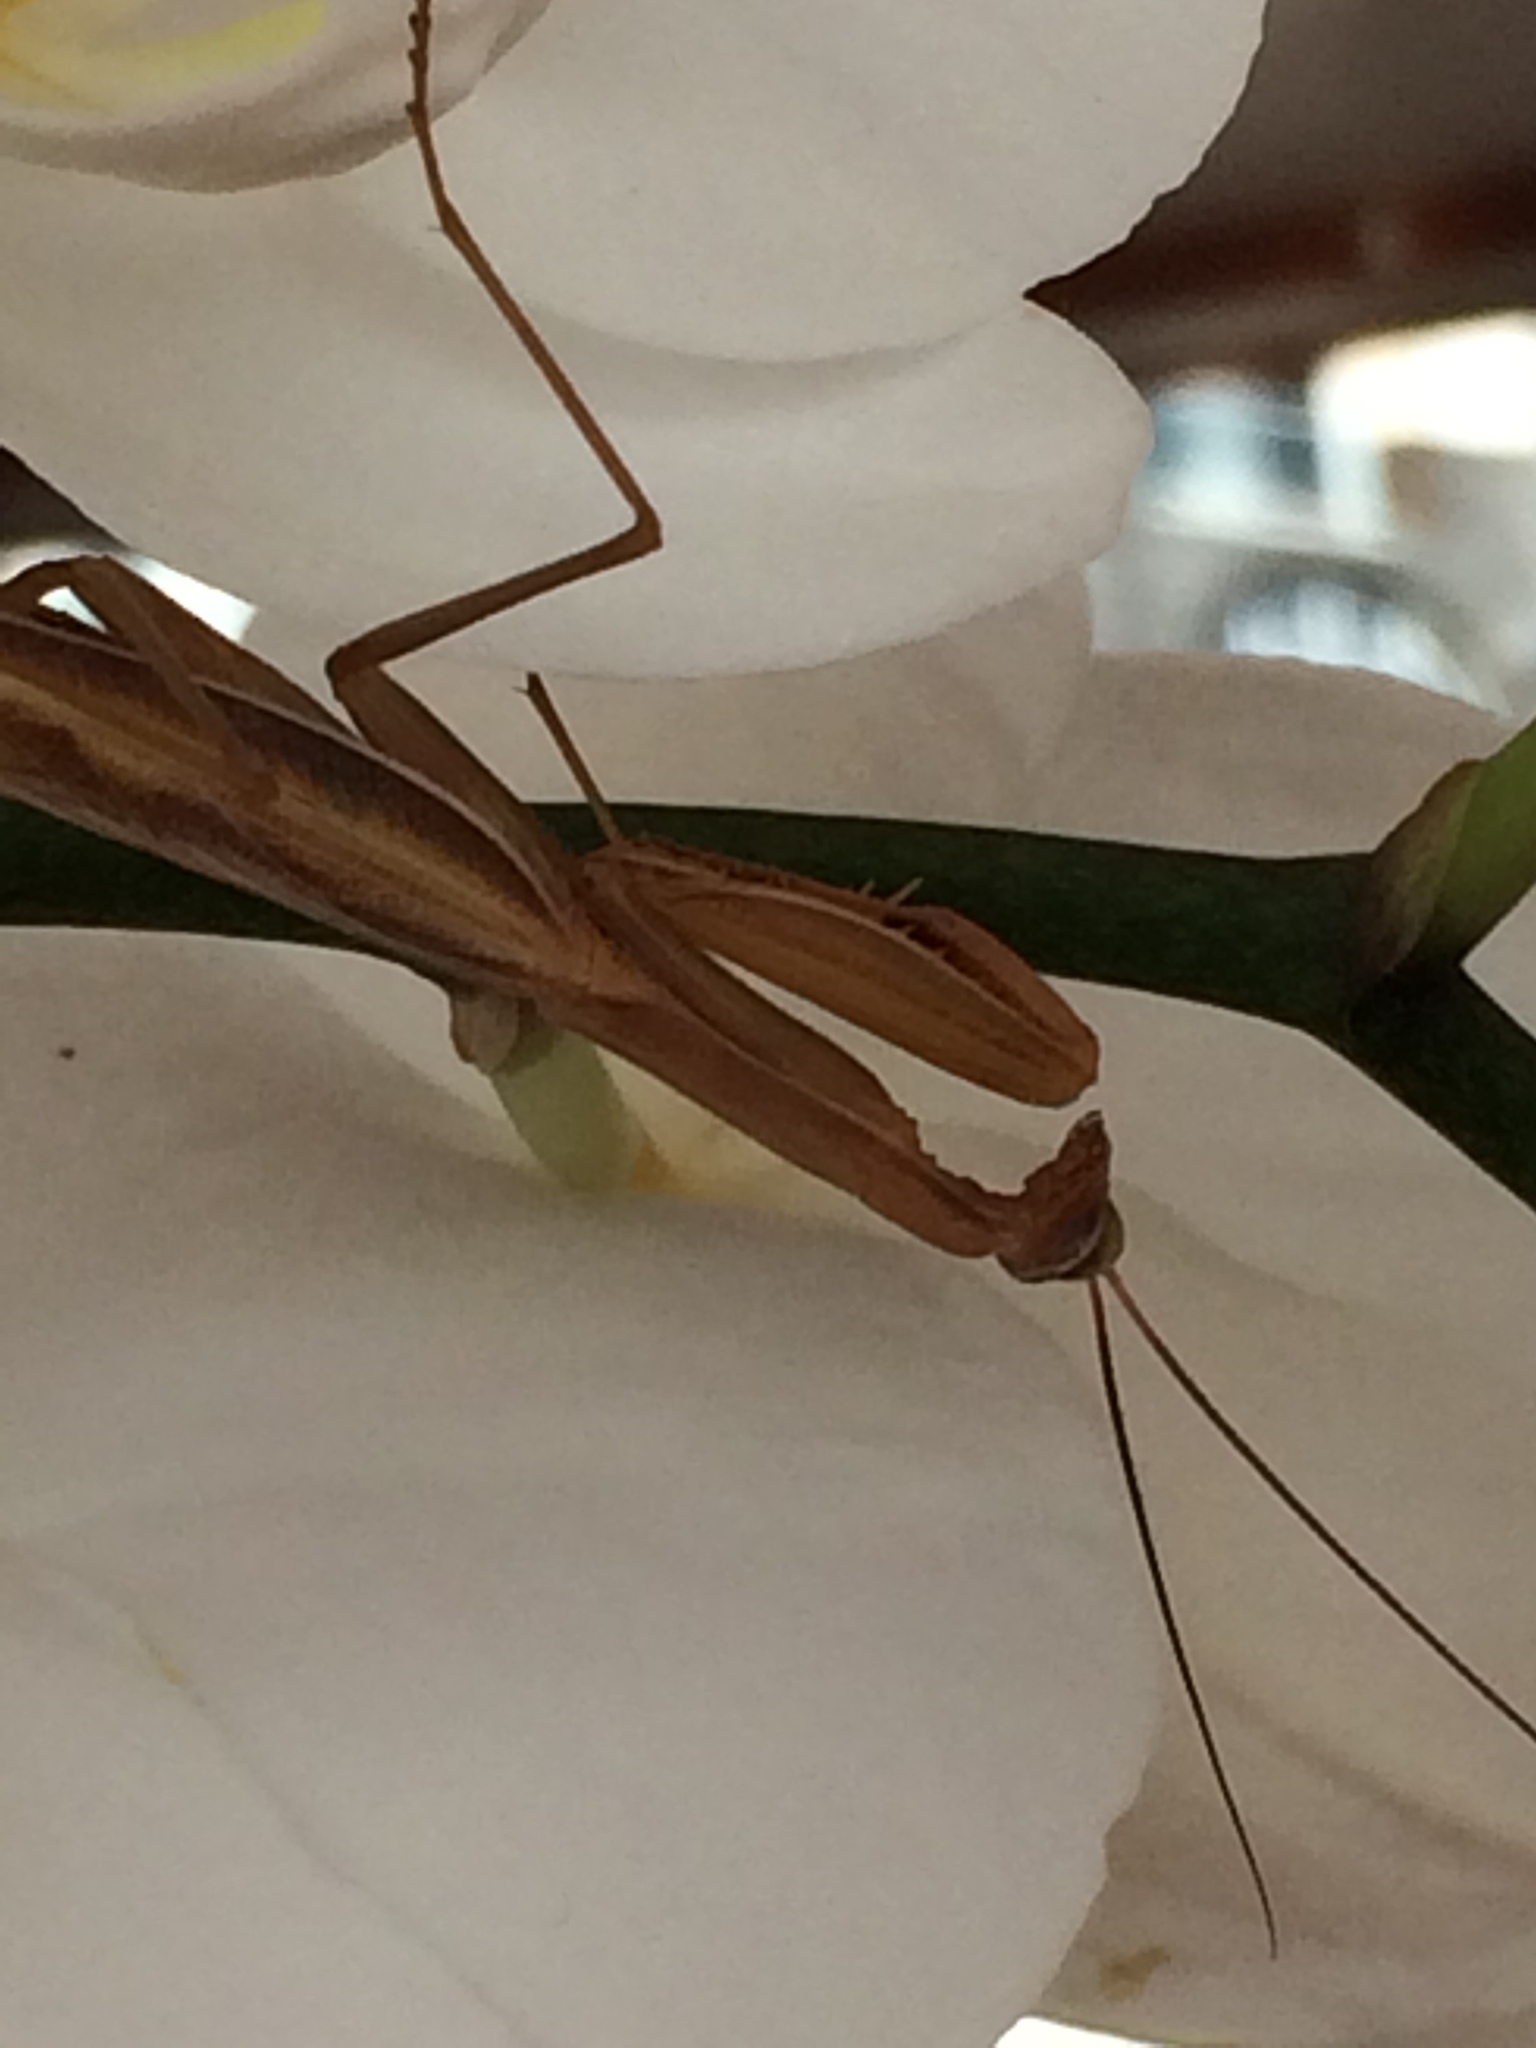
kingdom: Animalia
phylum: Arthropoda
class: Insecta
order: Mantodea
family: Mantidae
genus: Mantis
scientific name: Mantis religiosa
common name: Praying mantis
